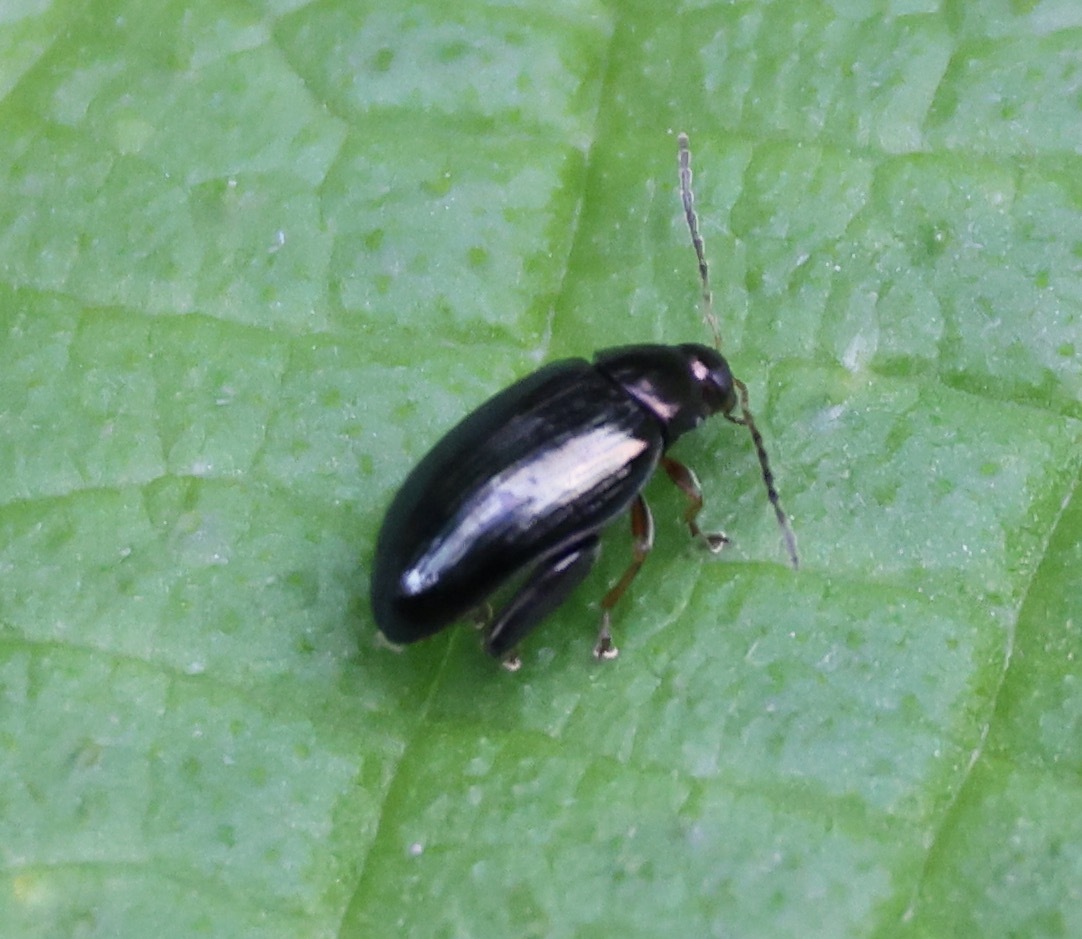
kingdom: Animalia
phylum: Arthropoda
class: Insecta
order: Coleoptera
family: Chrysomelidae
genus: Psylliodes
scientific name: Psylliodes chrysocephalus
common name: Cabbage-stem flea beetle
